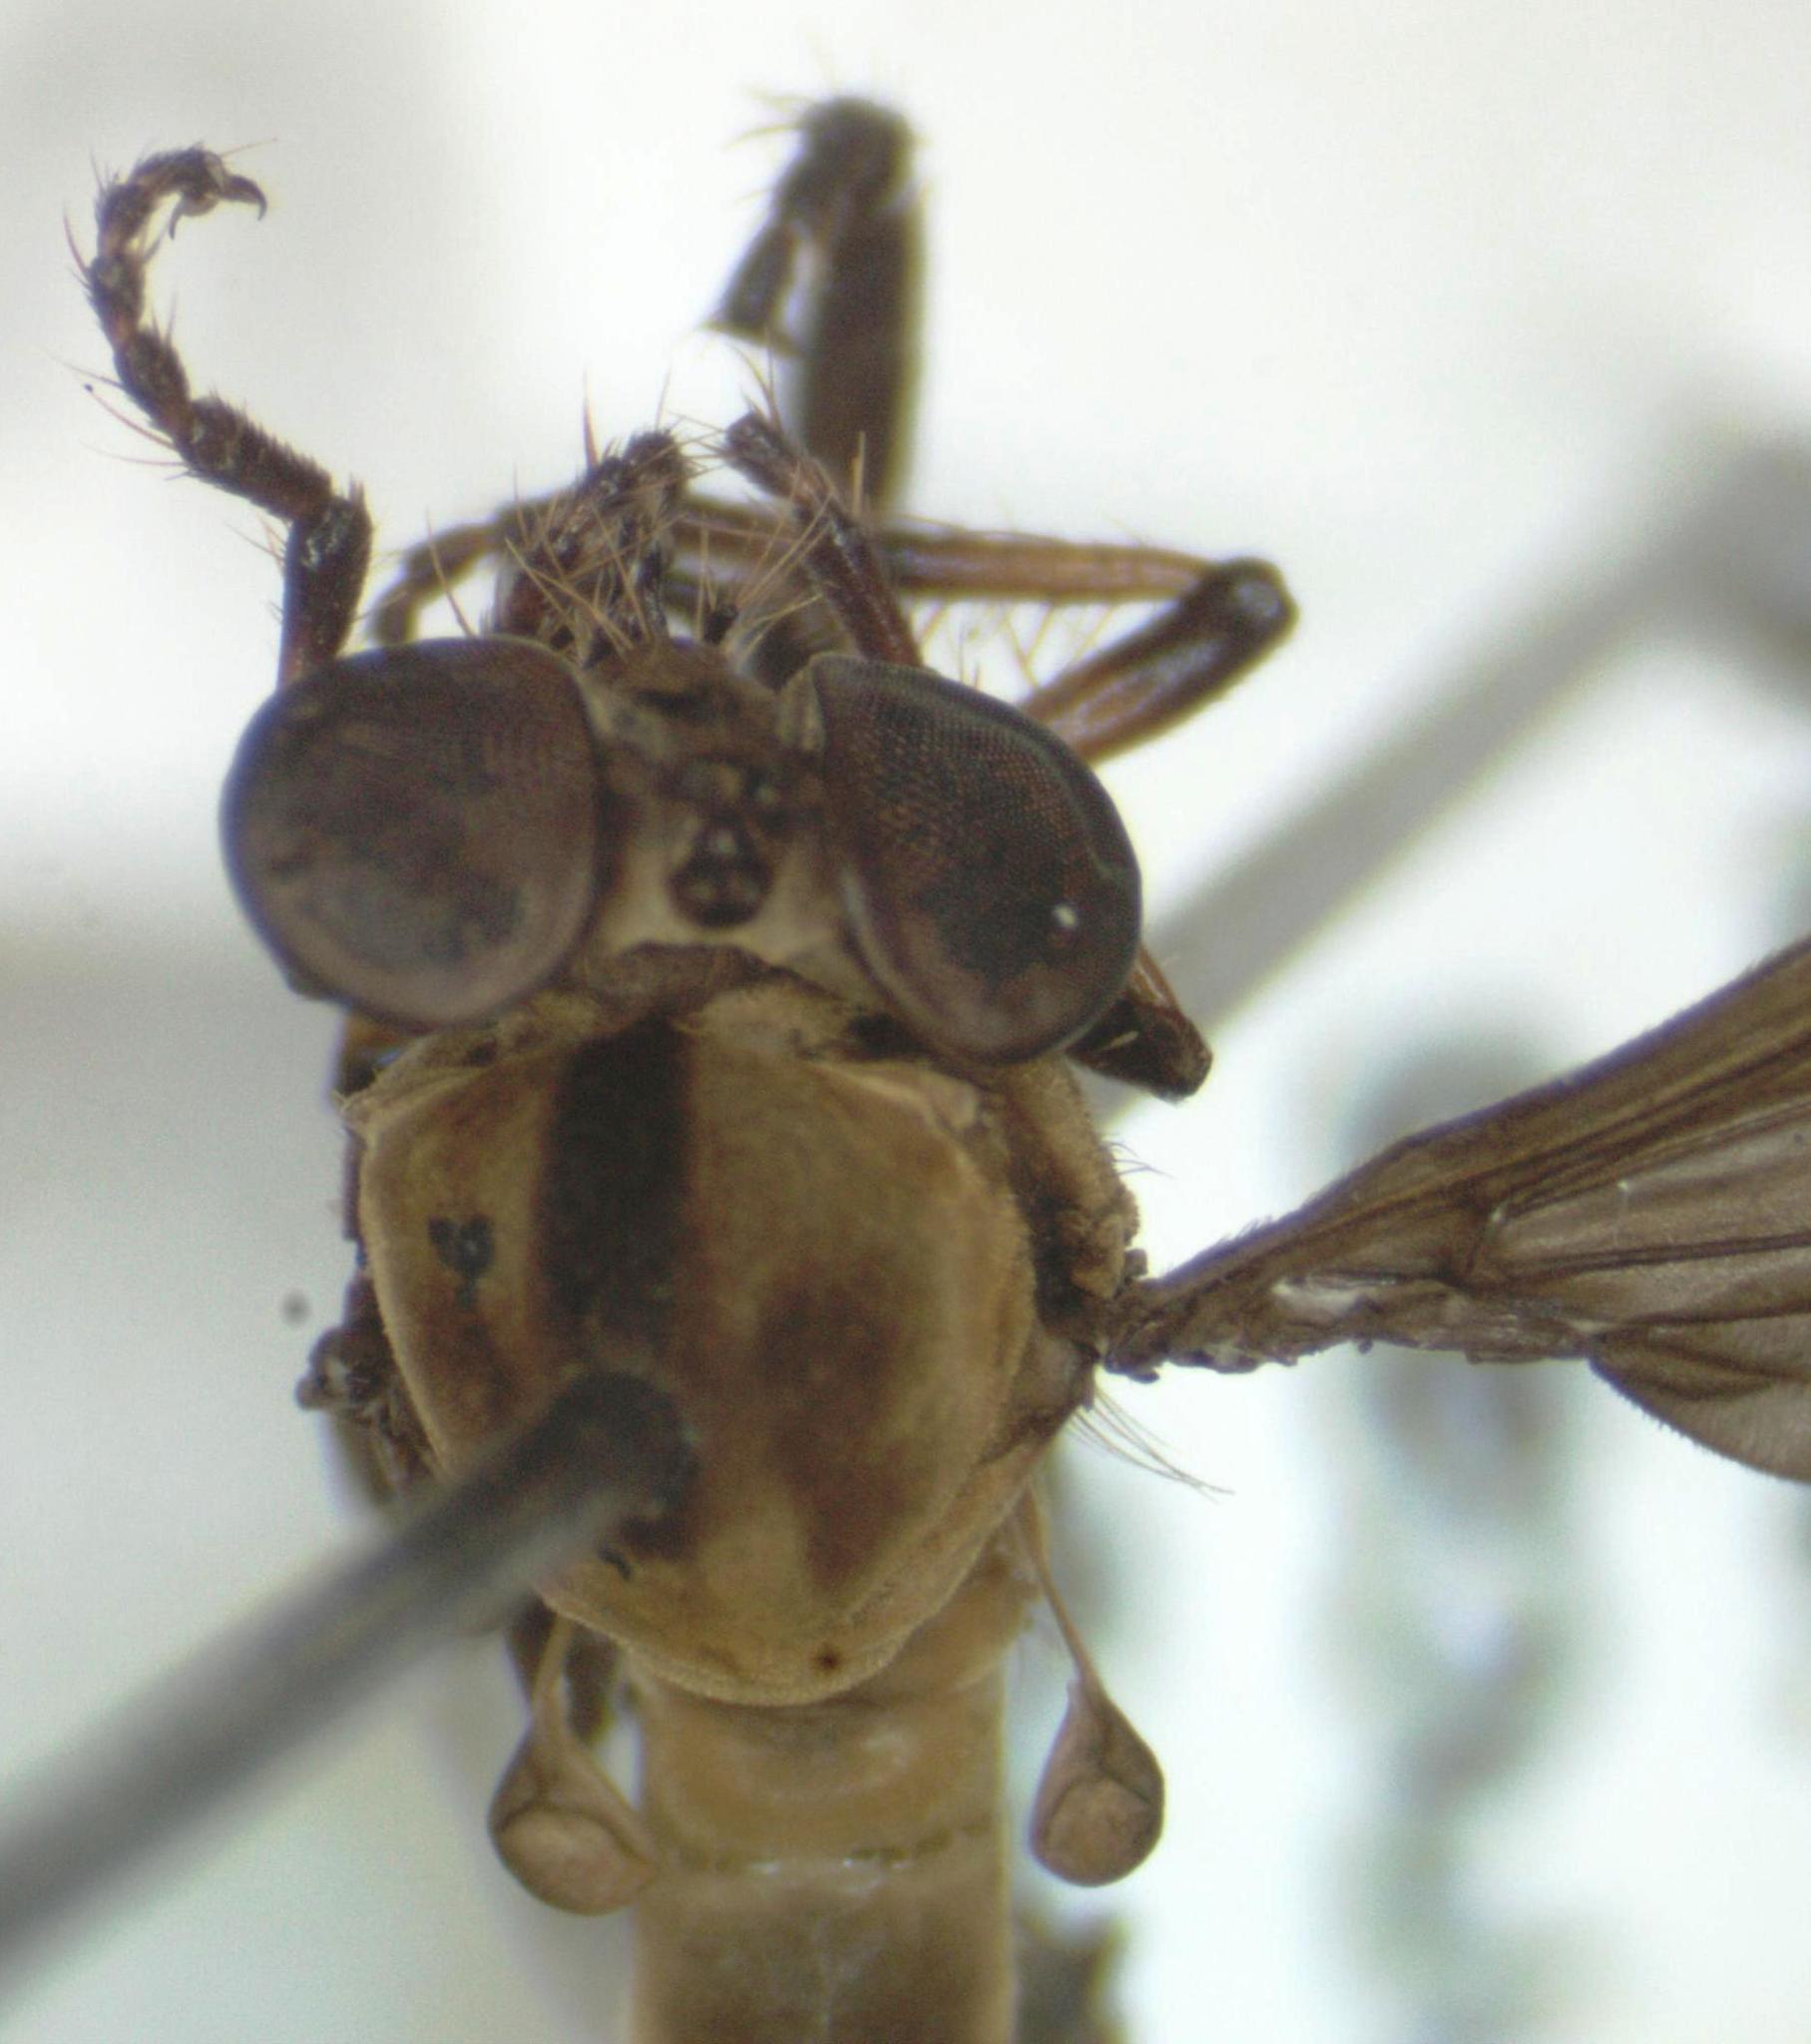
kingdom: Animalia
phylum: Arthropoda
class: Insecta
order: Diptera
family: Asilidae
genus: Holcocephala
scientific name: Holcocephala
